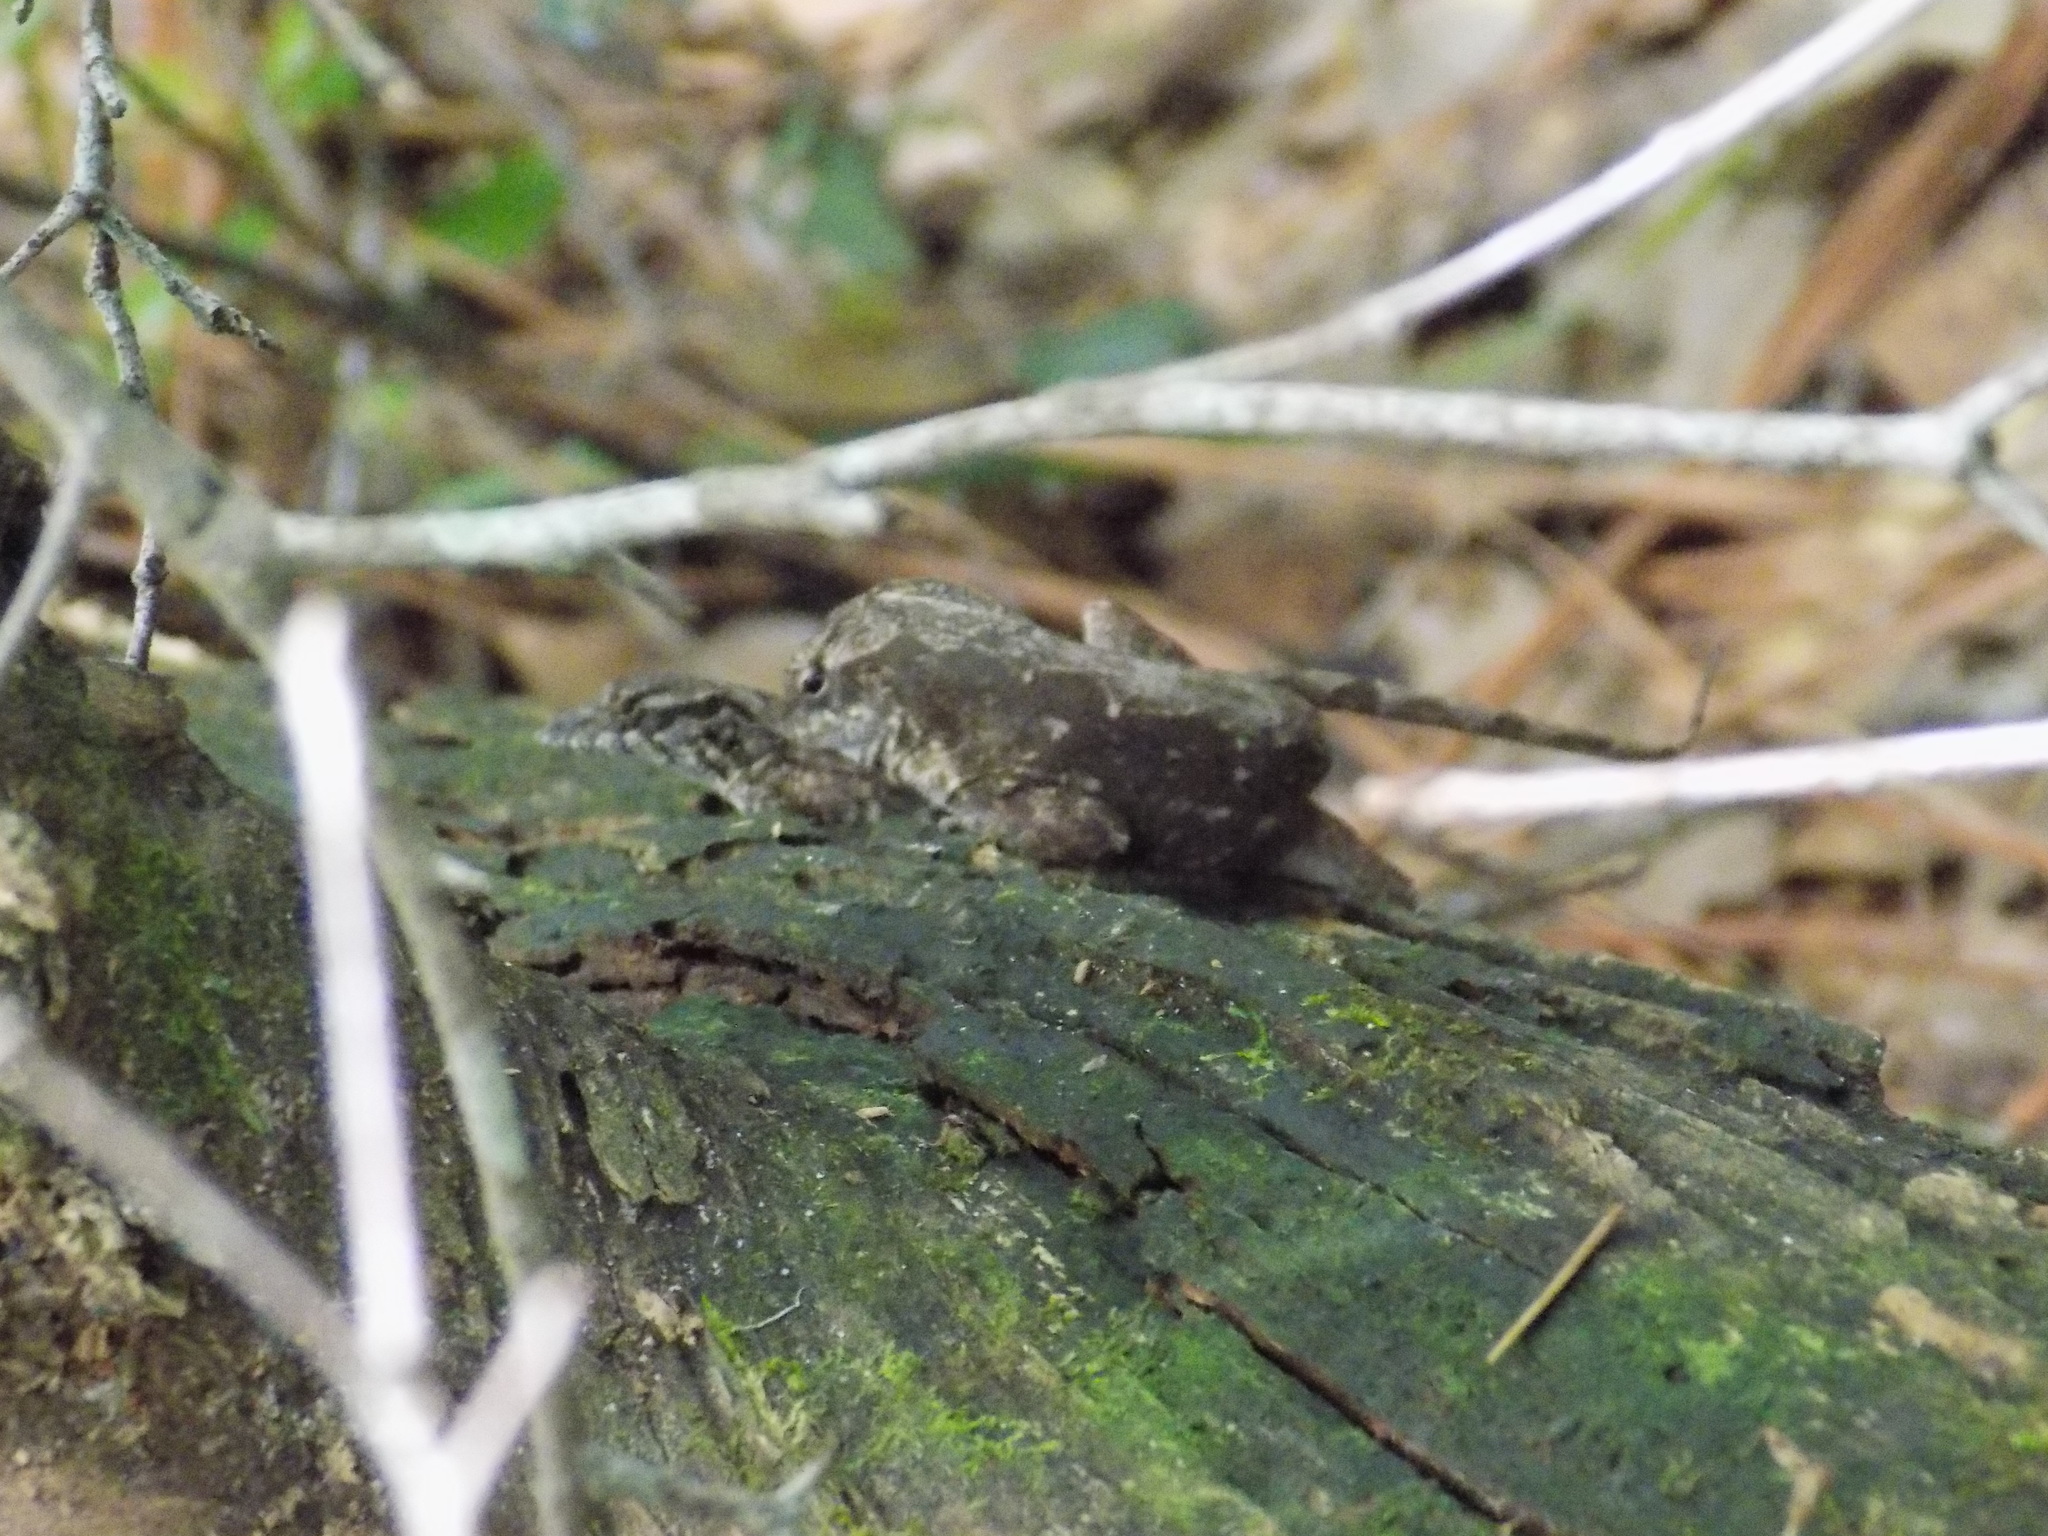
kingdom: Animalia
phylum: Chordata
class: Squamata
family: Dactyloidae
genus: Anolis
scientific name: Anolis sagrei
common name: Brown anole
